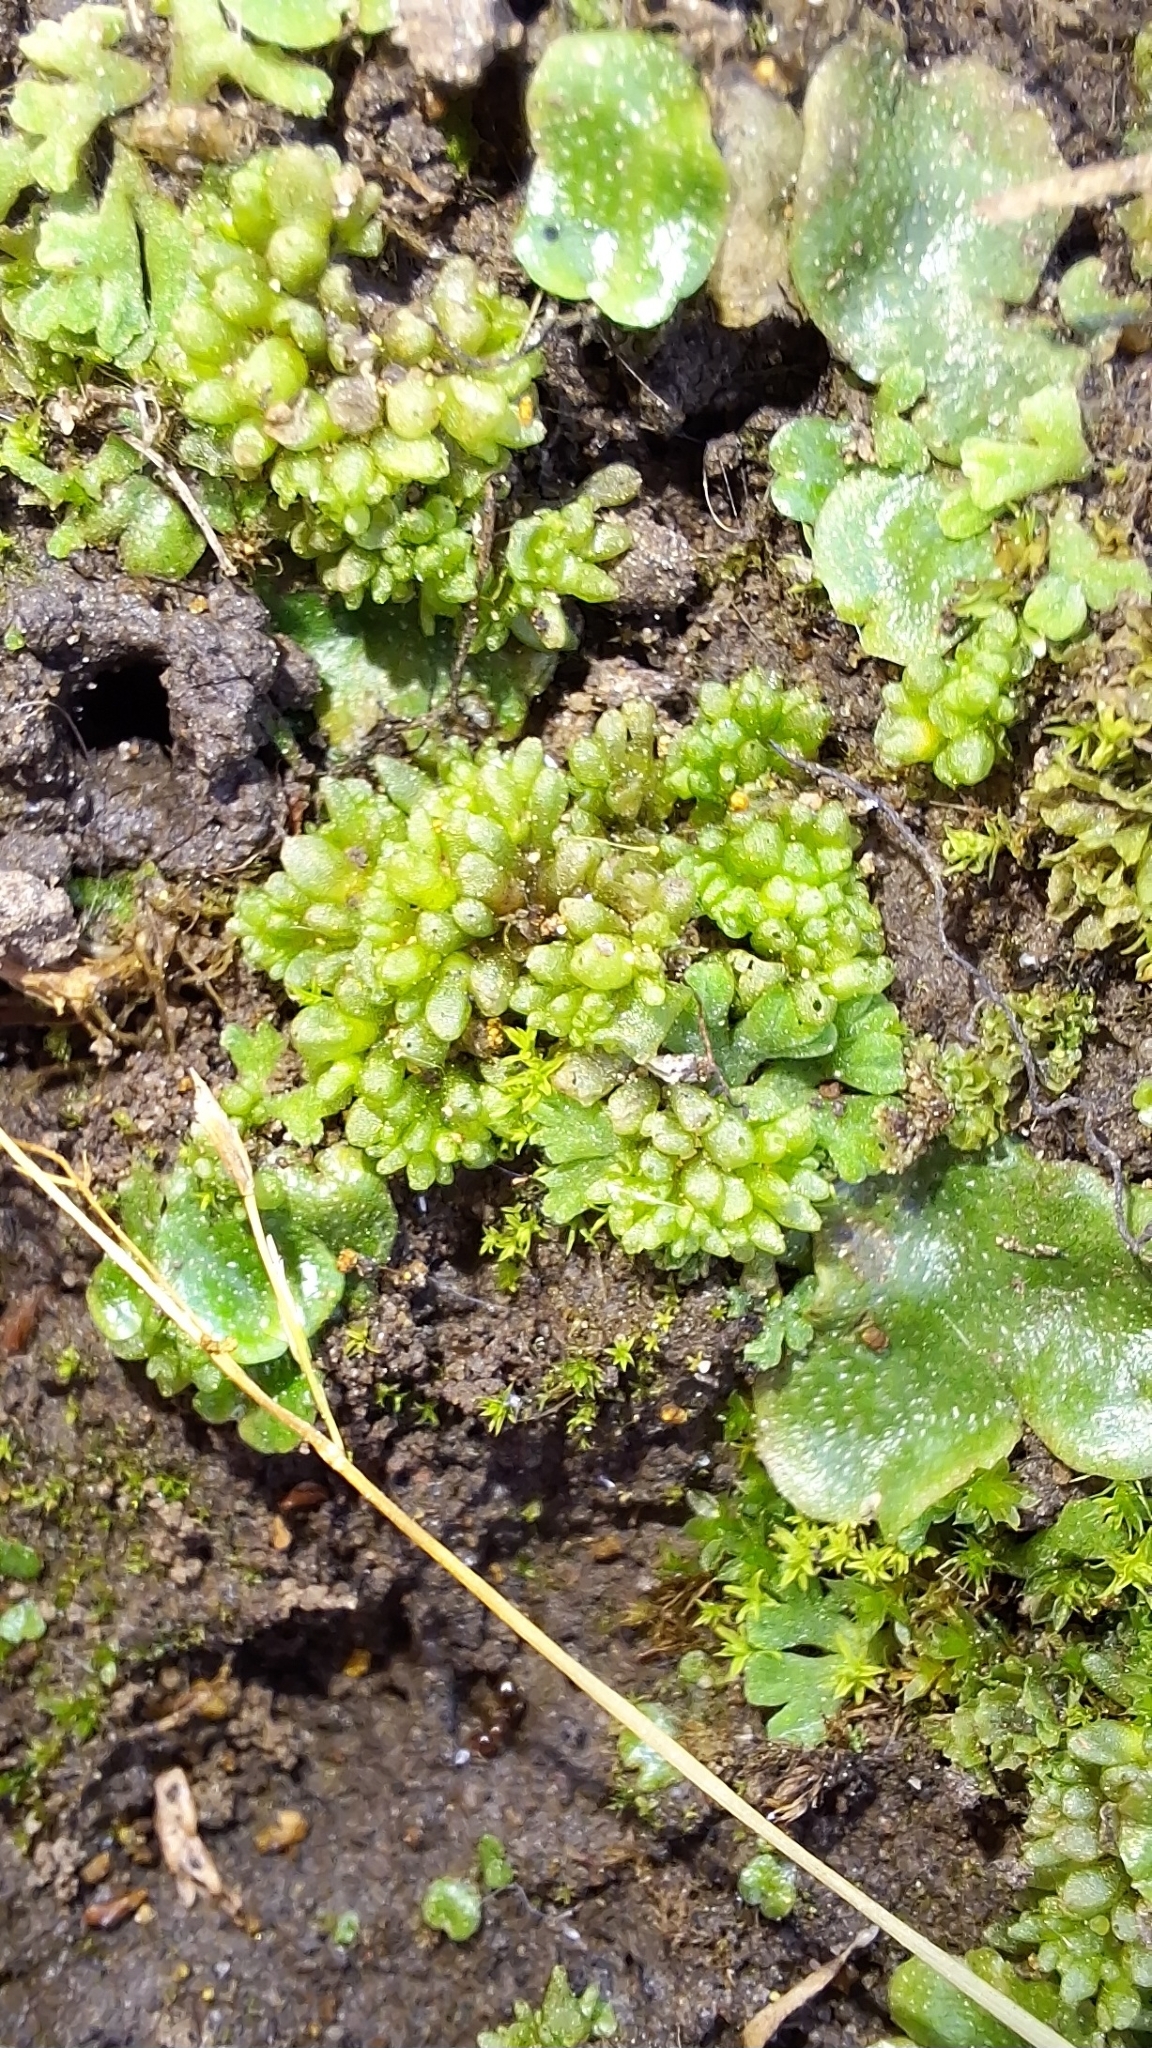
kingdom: Plantae
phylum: Marchantiophyta
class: Marchantiopsida
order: Sphaerocarpales
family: Sphaerocarpaceae
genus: Sphaerocarpos
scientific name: Sphaerocarpos texanus
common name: Texas balloonwort
